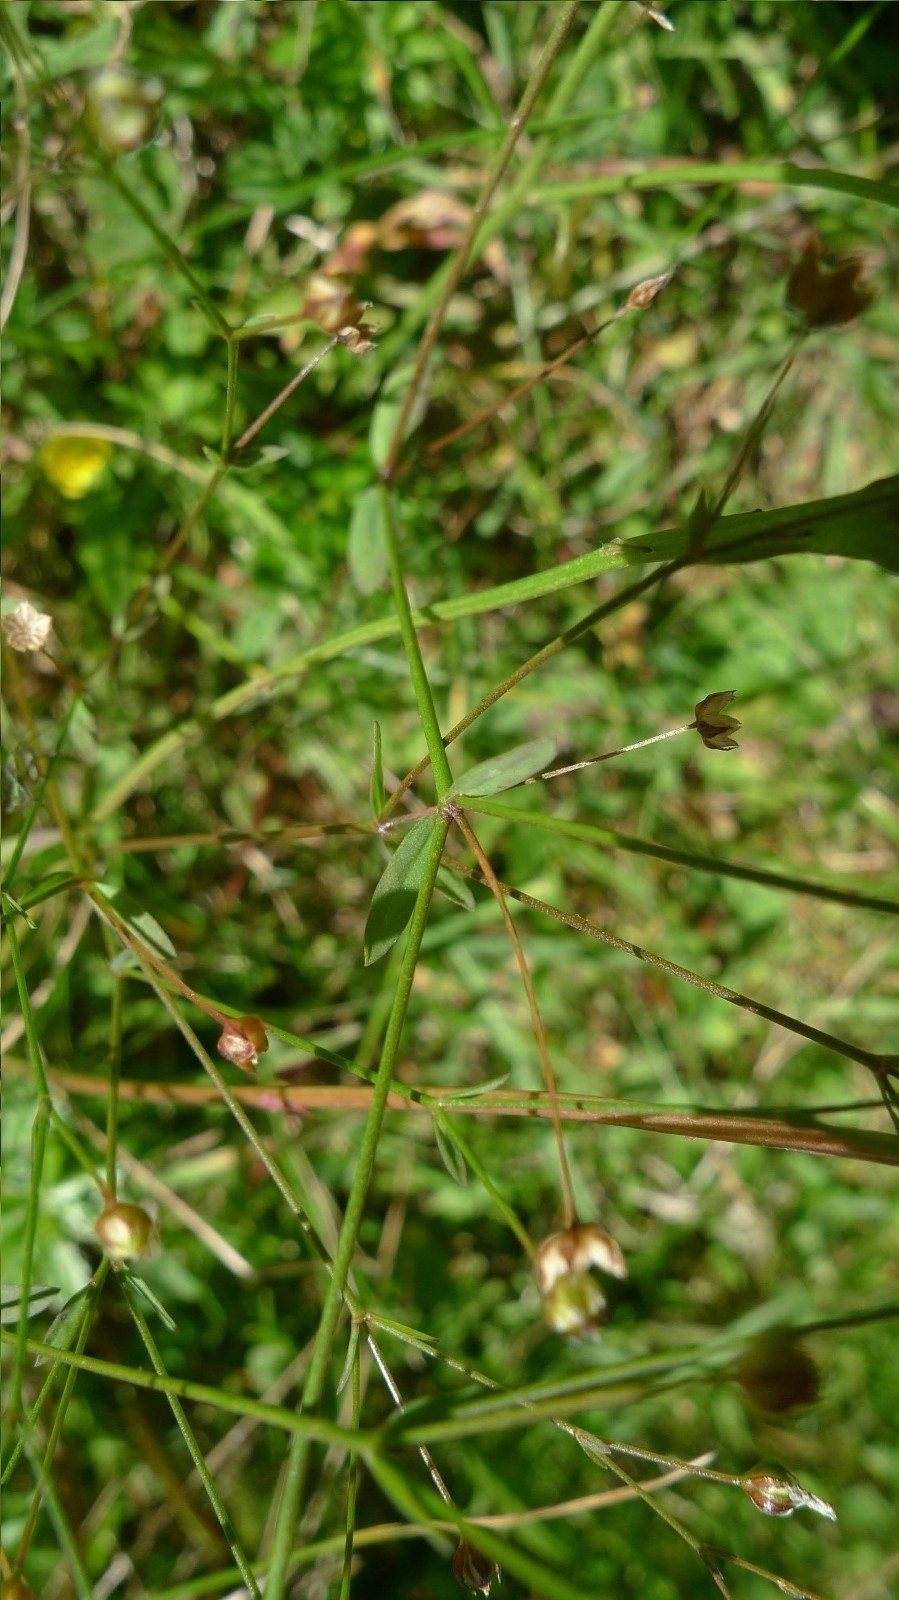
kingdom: Plantae
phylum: Tracheophyta
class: Magnoliopsida
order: Malpighiales
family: Linaceae
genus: Linum
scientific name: Linum catharticum
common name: Fairy flax
